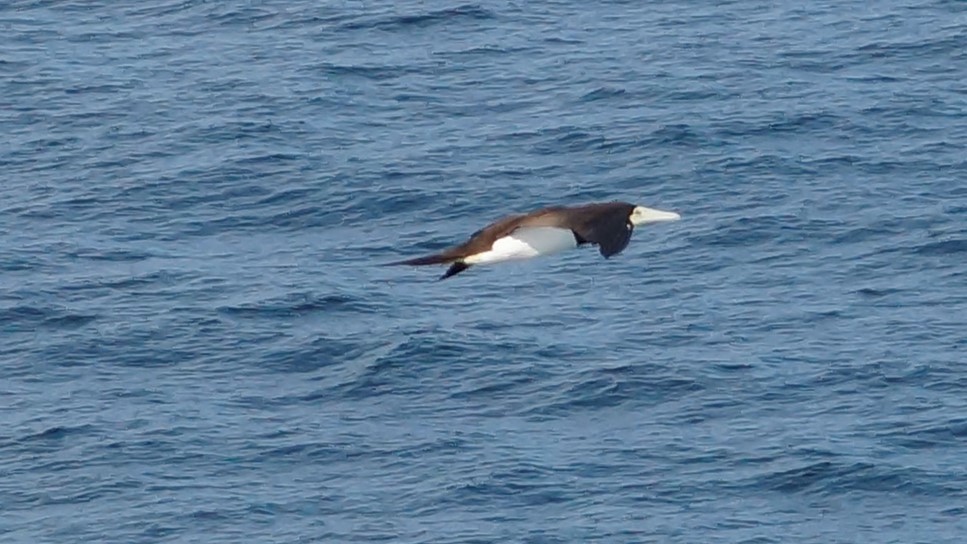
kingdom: Animalia
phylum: Chordata
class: Aves
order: Suliformes
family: Sulidae
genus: Sula
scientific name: Sula leucogaster
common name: Brown booby
